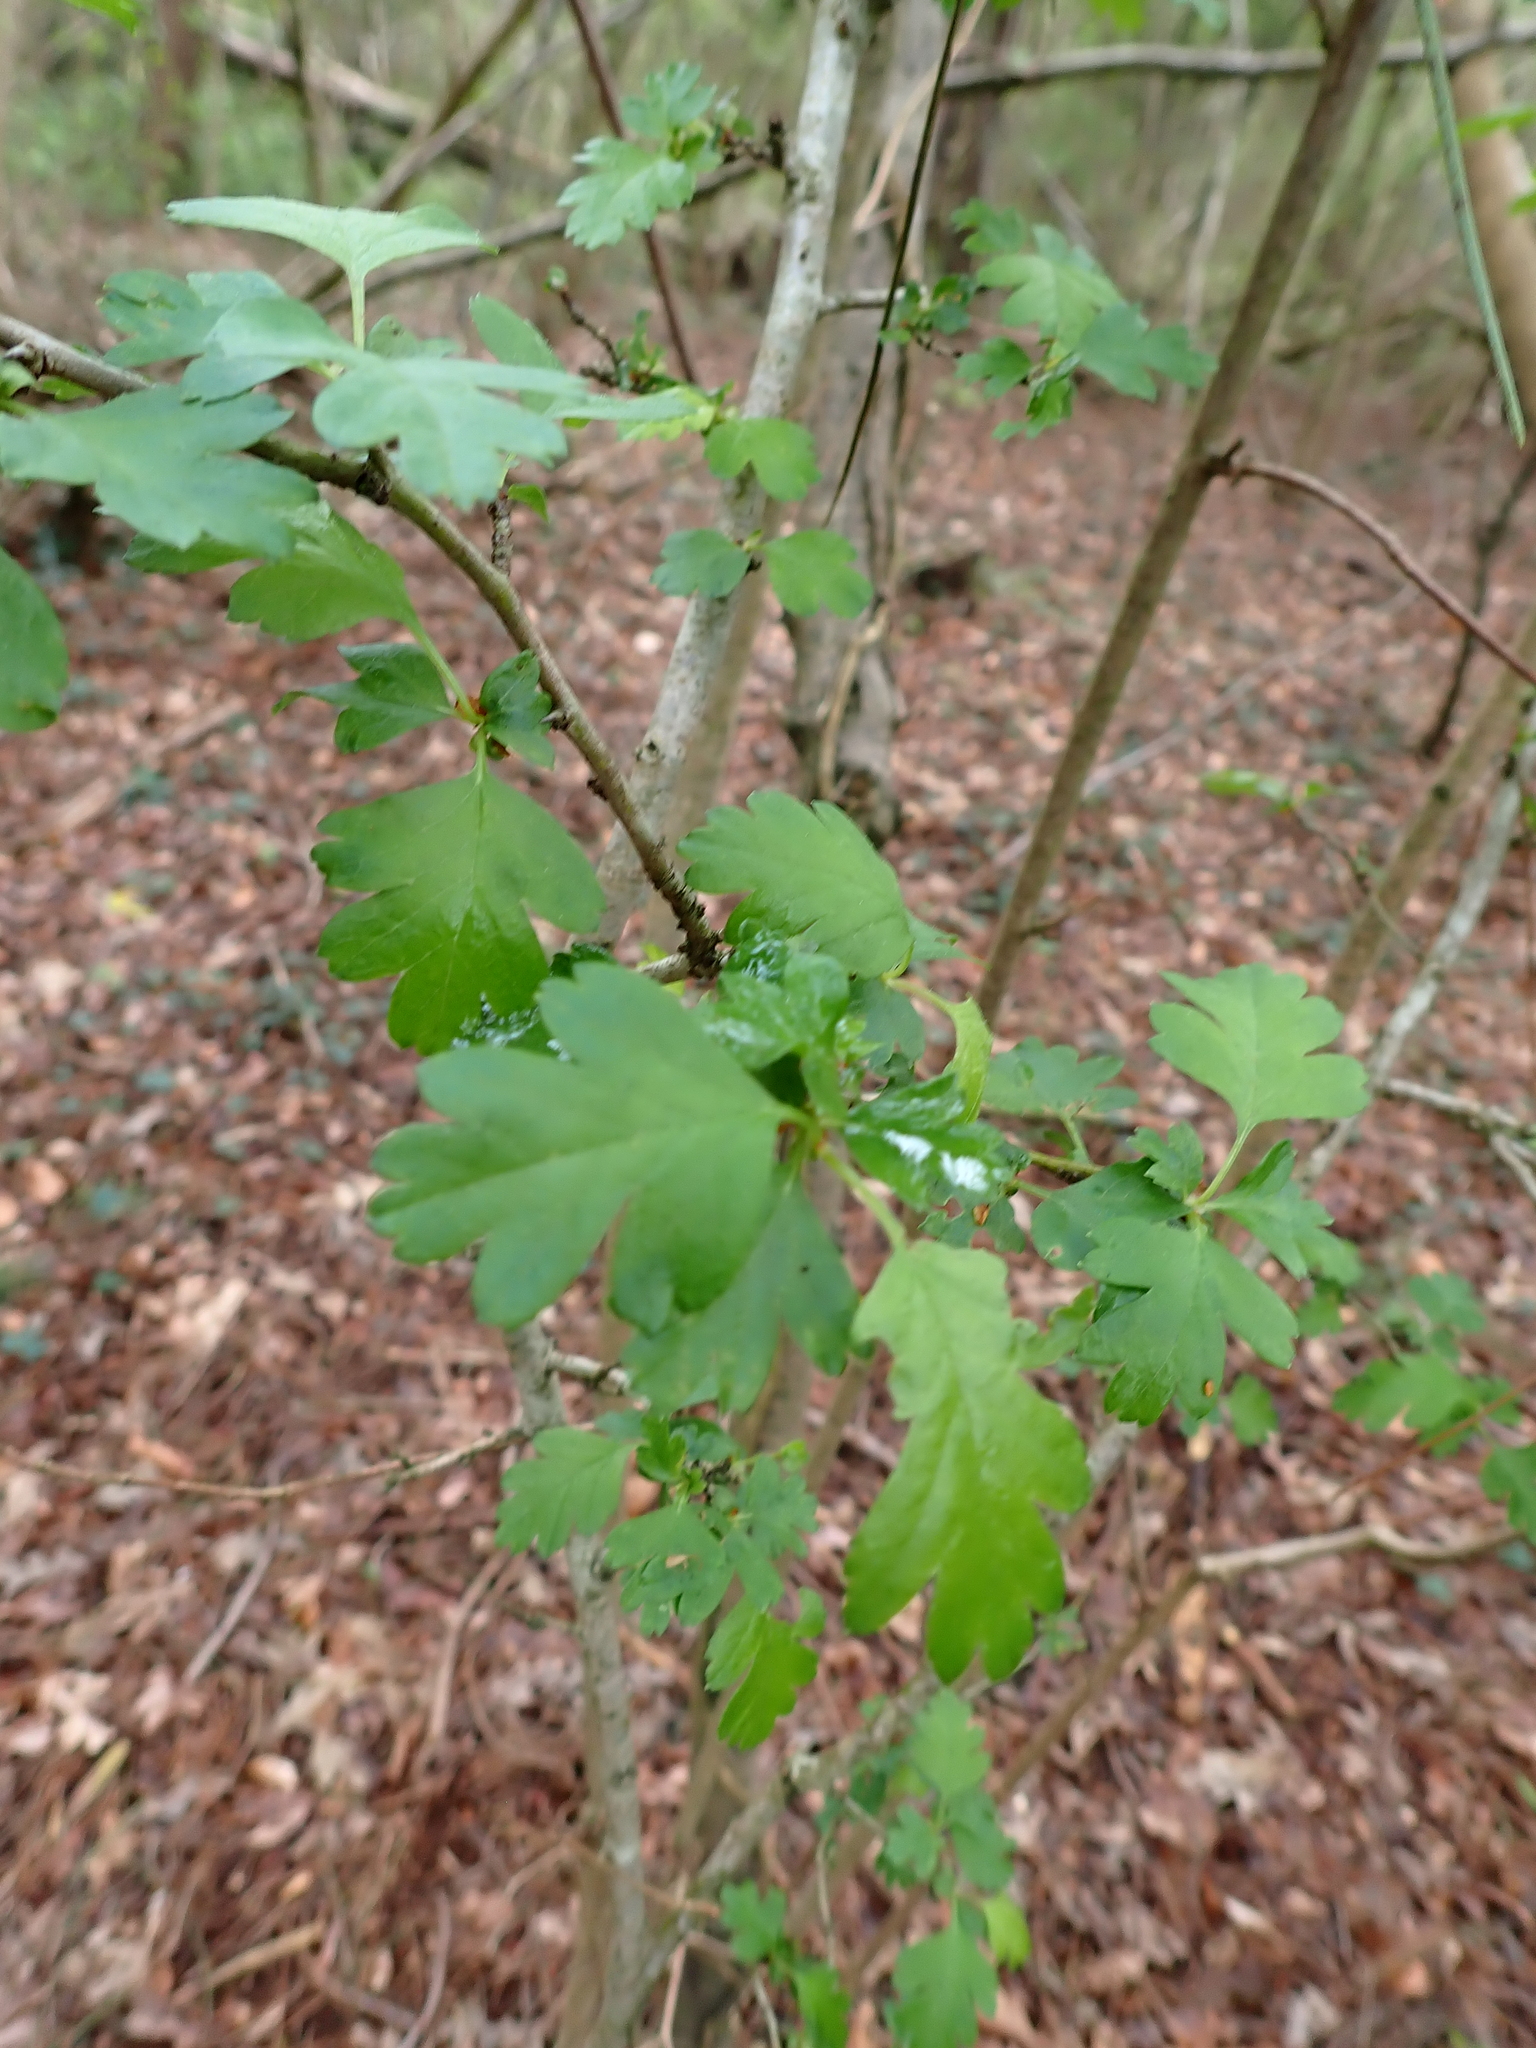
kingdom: Plantae
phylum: Tracheophyta
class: Magnoliopsida
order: Rosales
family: Rosaceae
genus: Crataegus
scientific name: Crataegus monogyna
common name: Hawthorn
